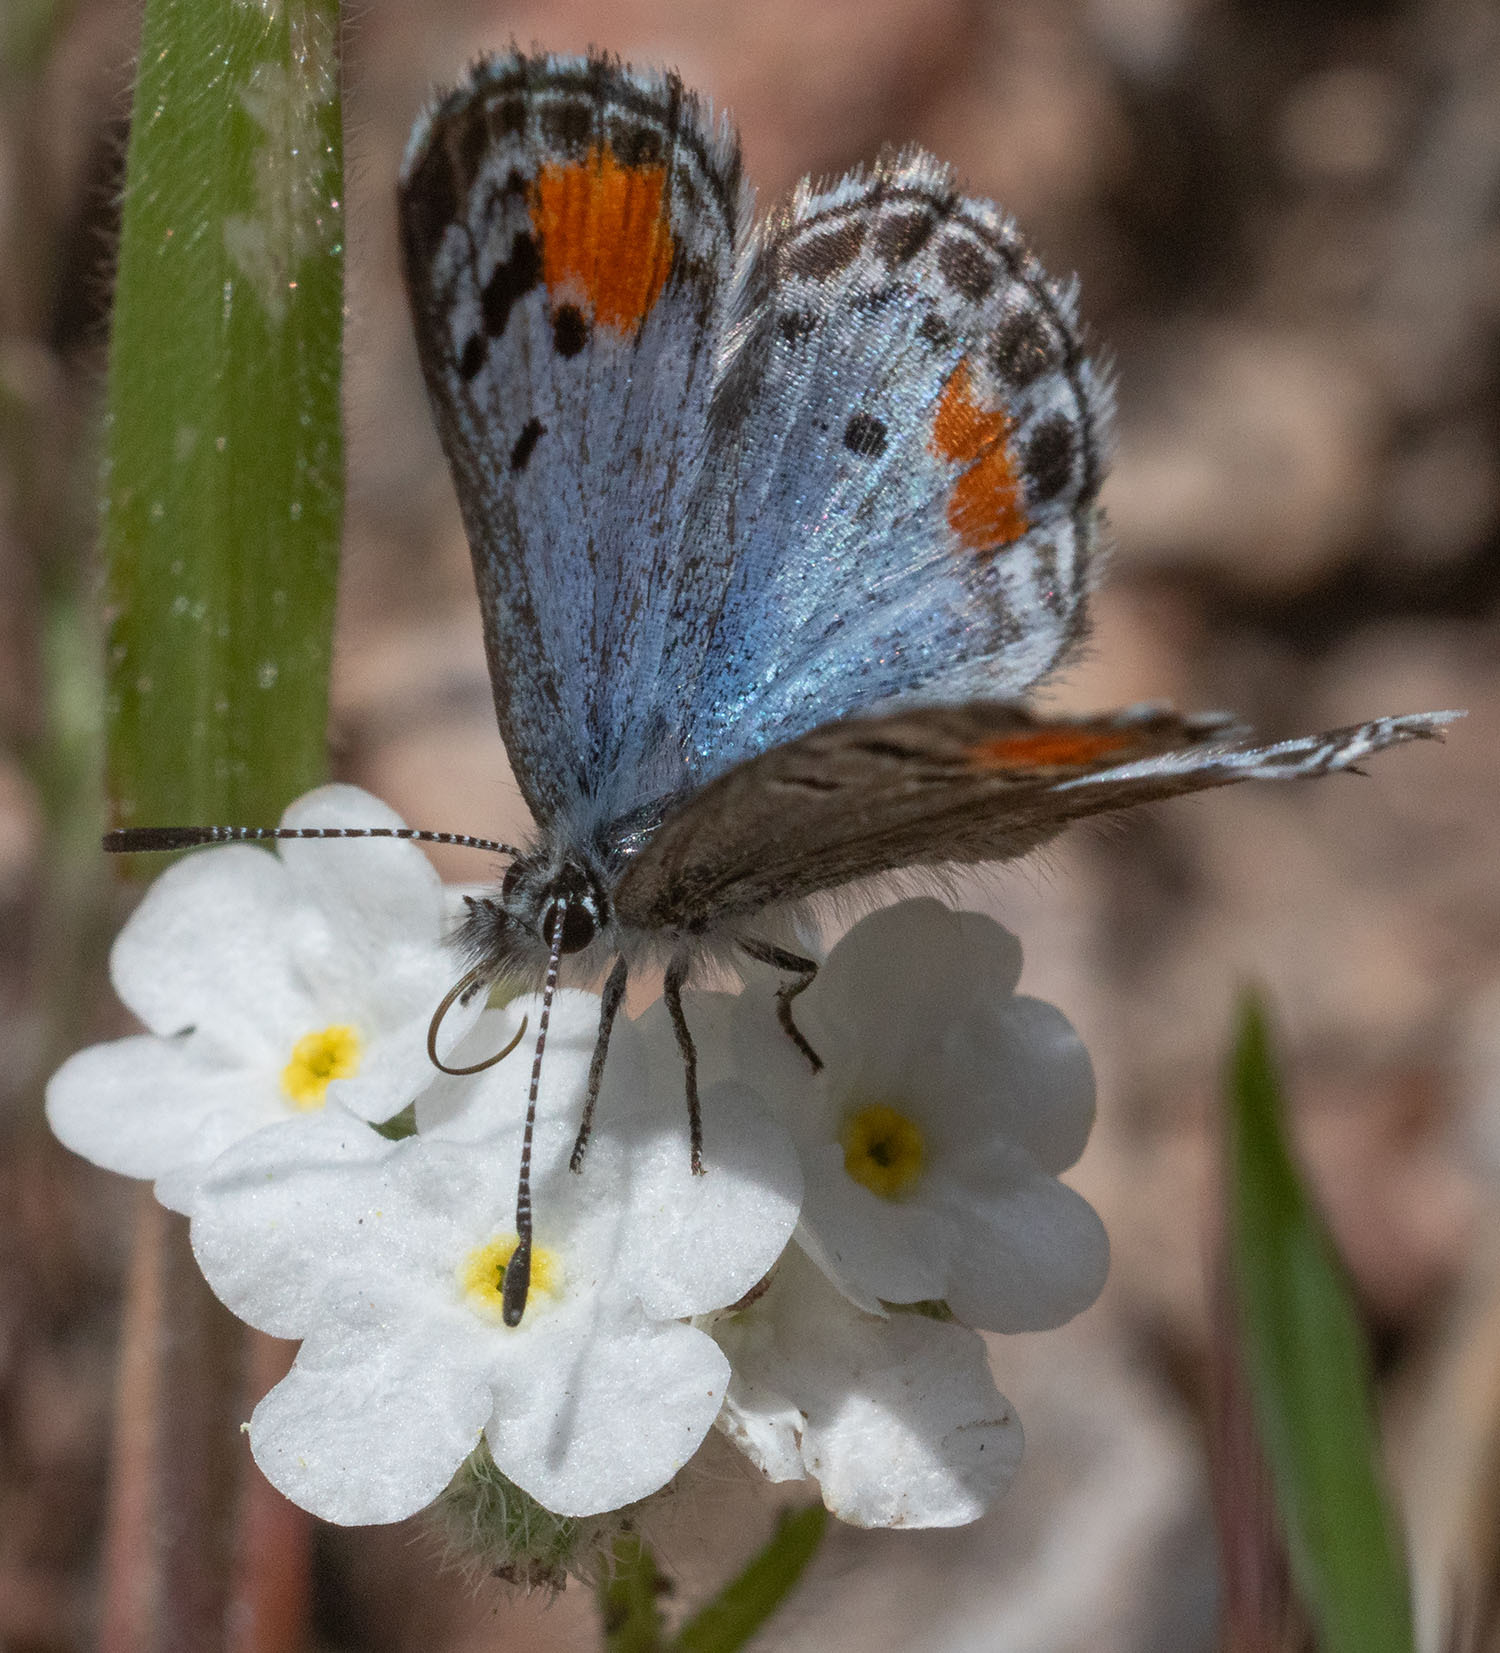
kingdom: Animalia
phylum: Arthropoda
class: Insecta
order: Lepidoptera
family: Lycaenidae
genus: Philotes
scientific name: Philotes sonorensis
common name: Sonoran blue
